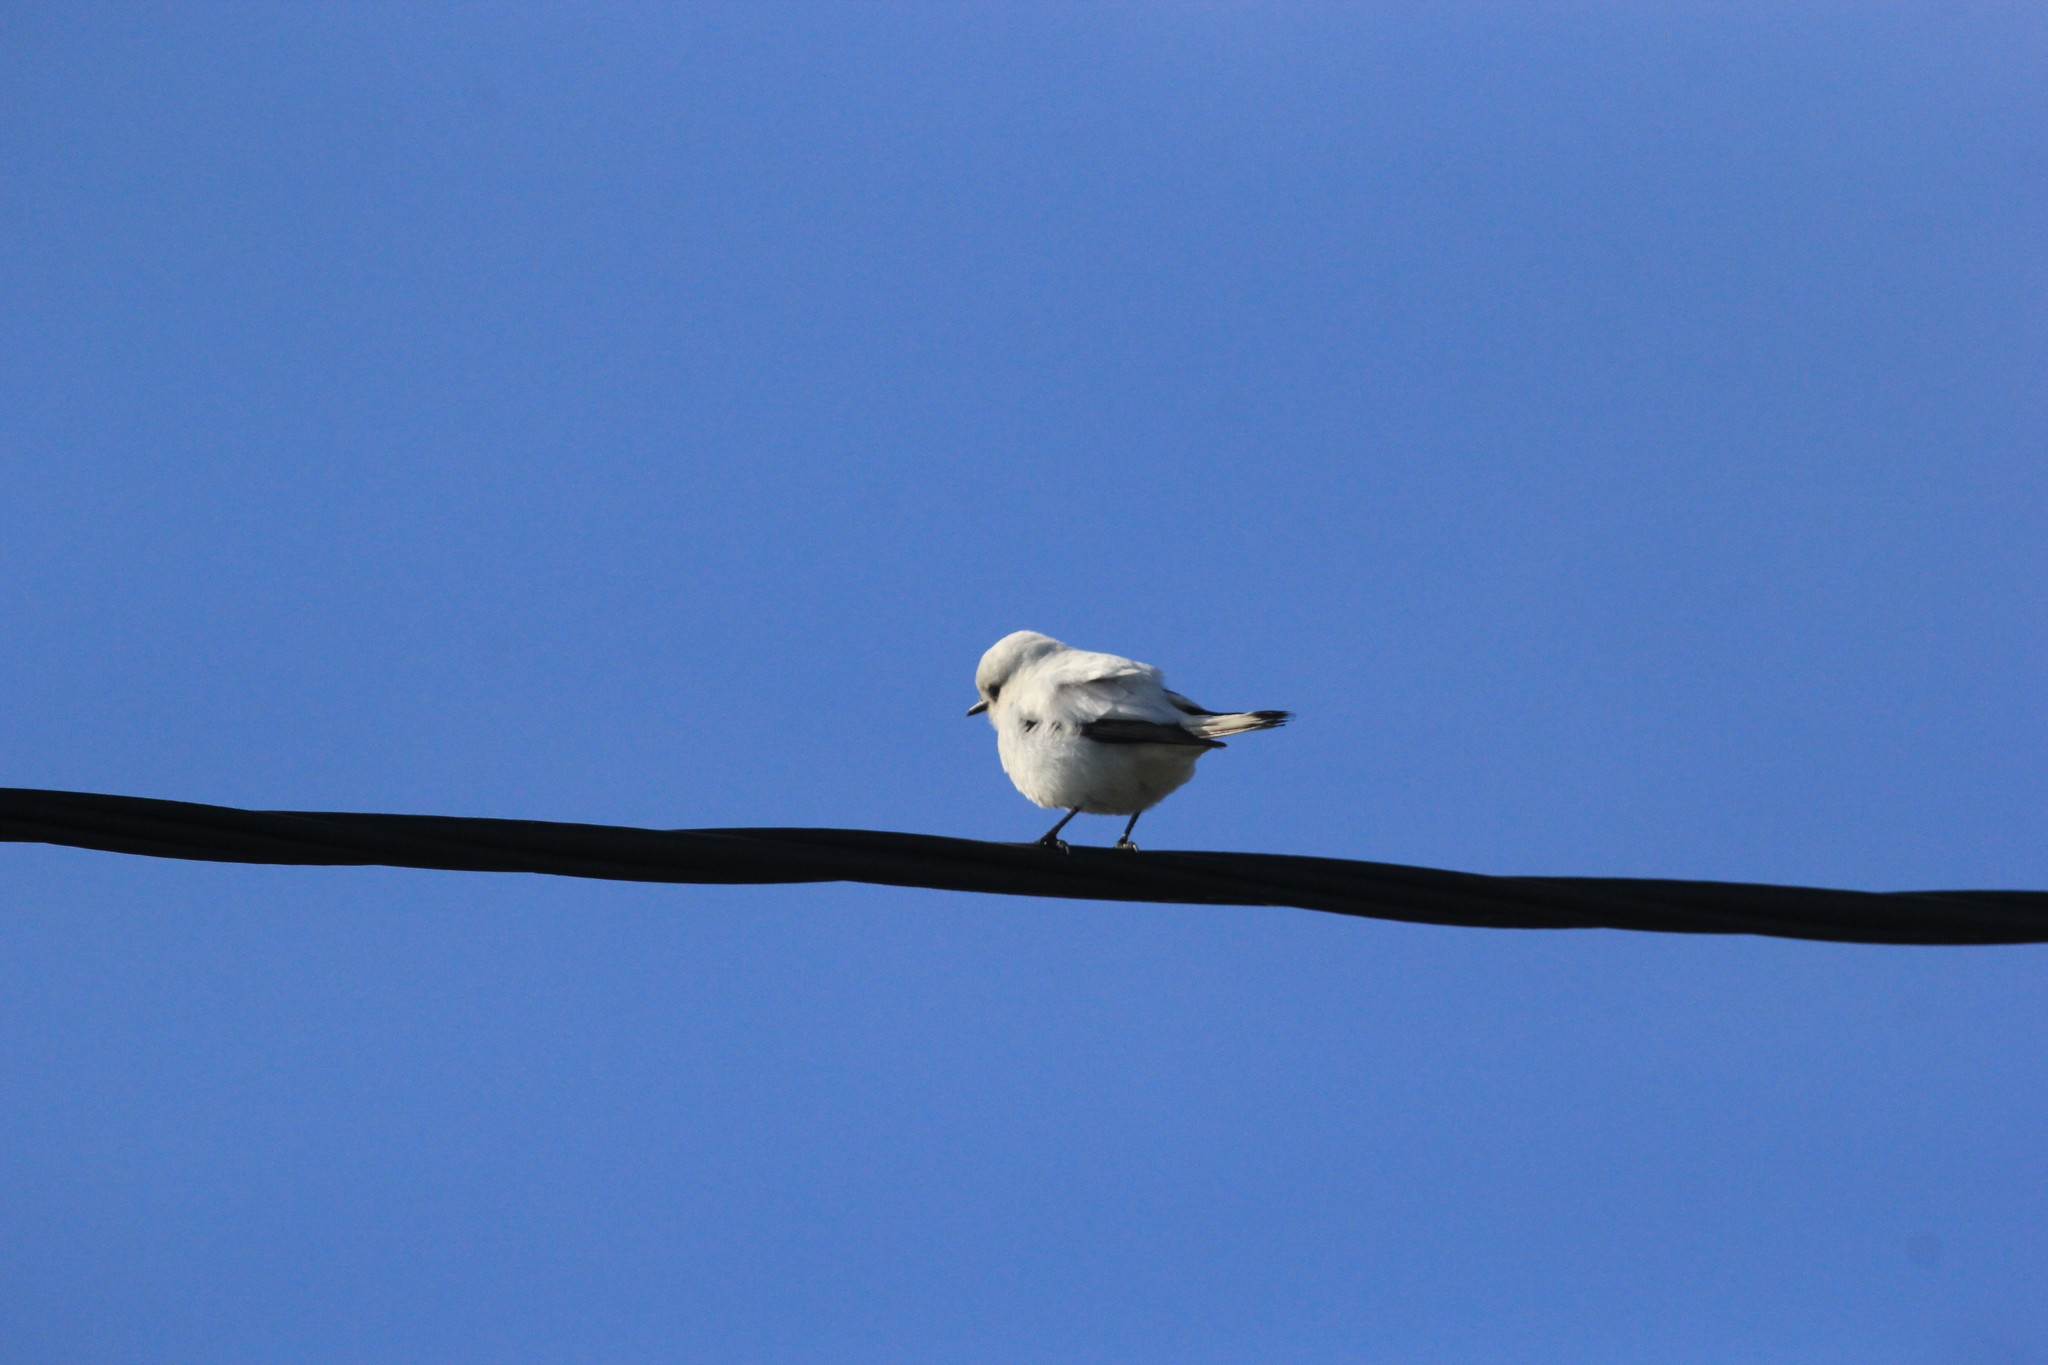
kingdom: Animalia
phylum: Chordata
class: Aves
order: Passeriformes
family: Tyrannidae
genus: Xolmis
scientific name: Xolmis irupero
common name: White monjita
